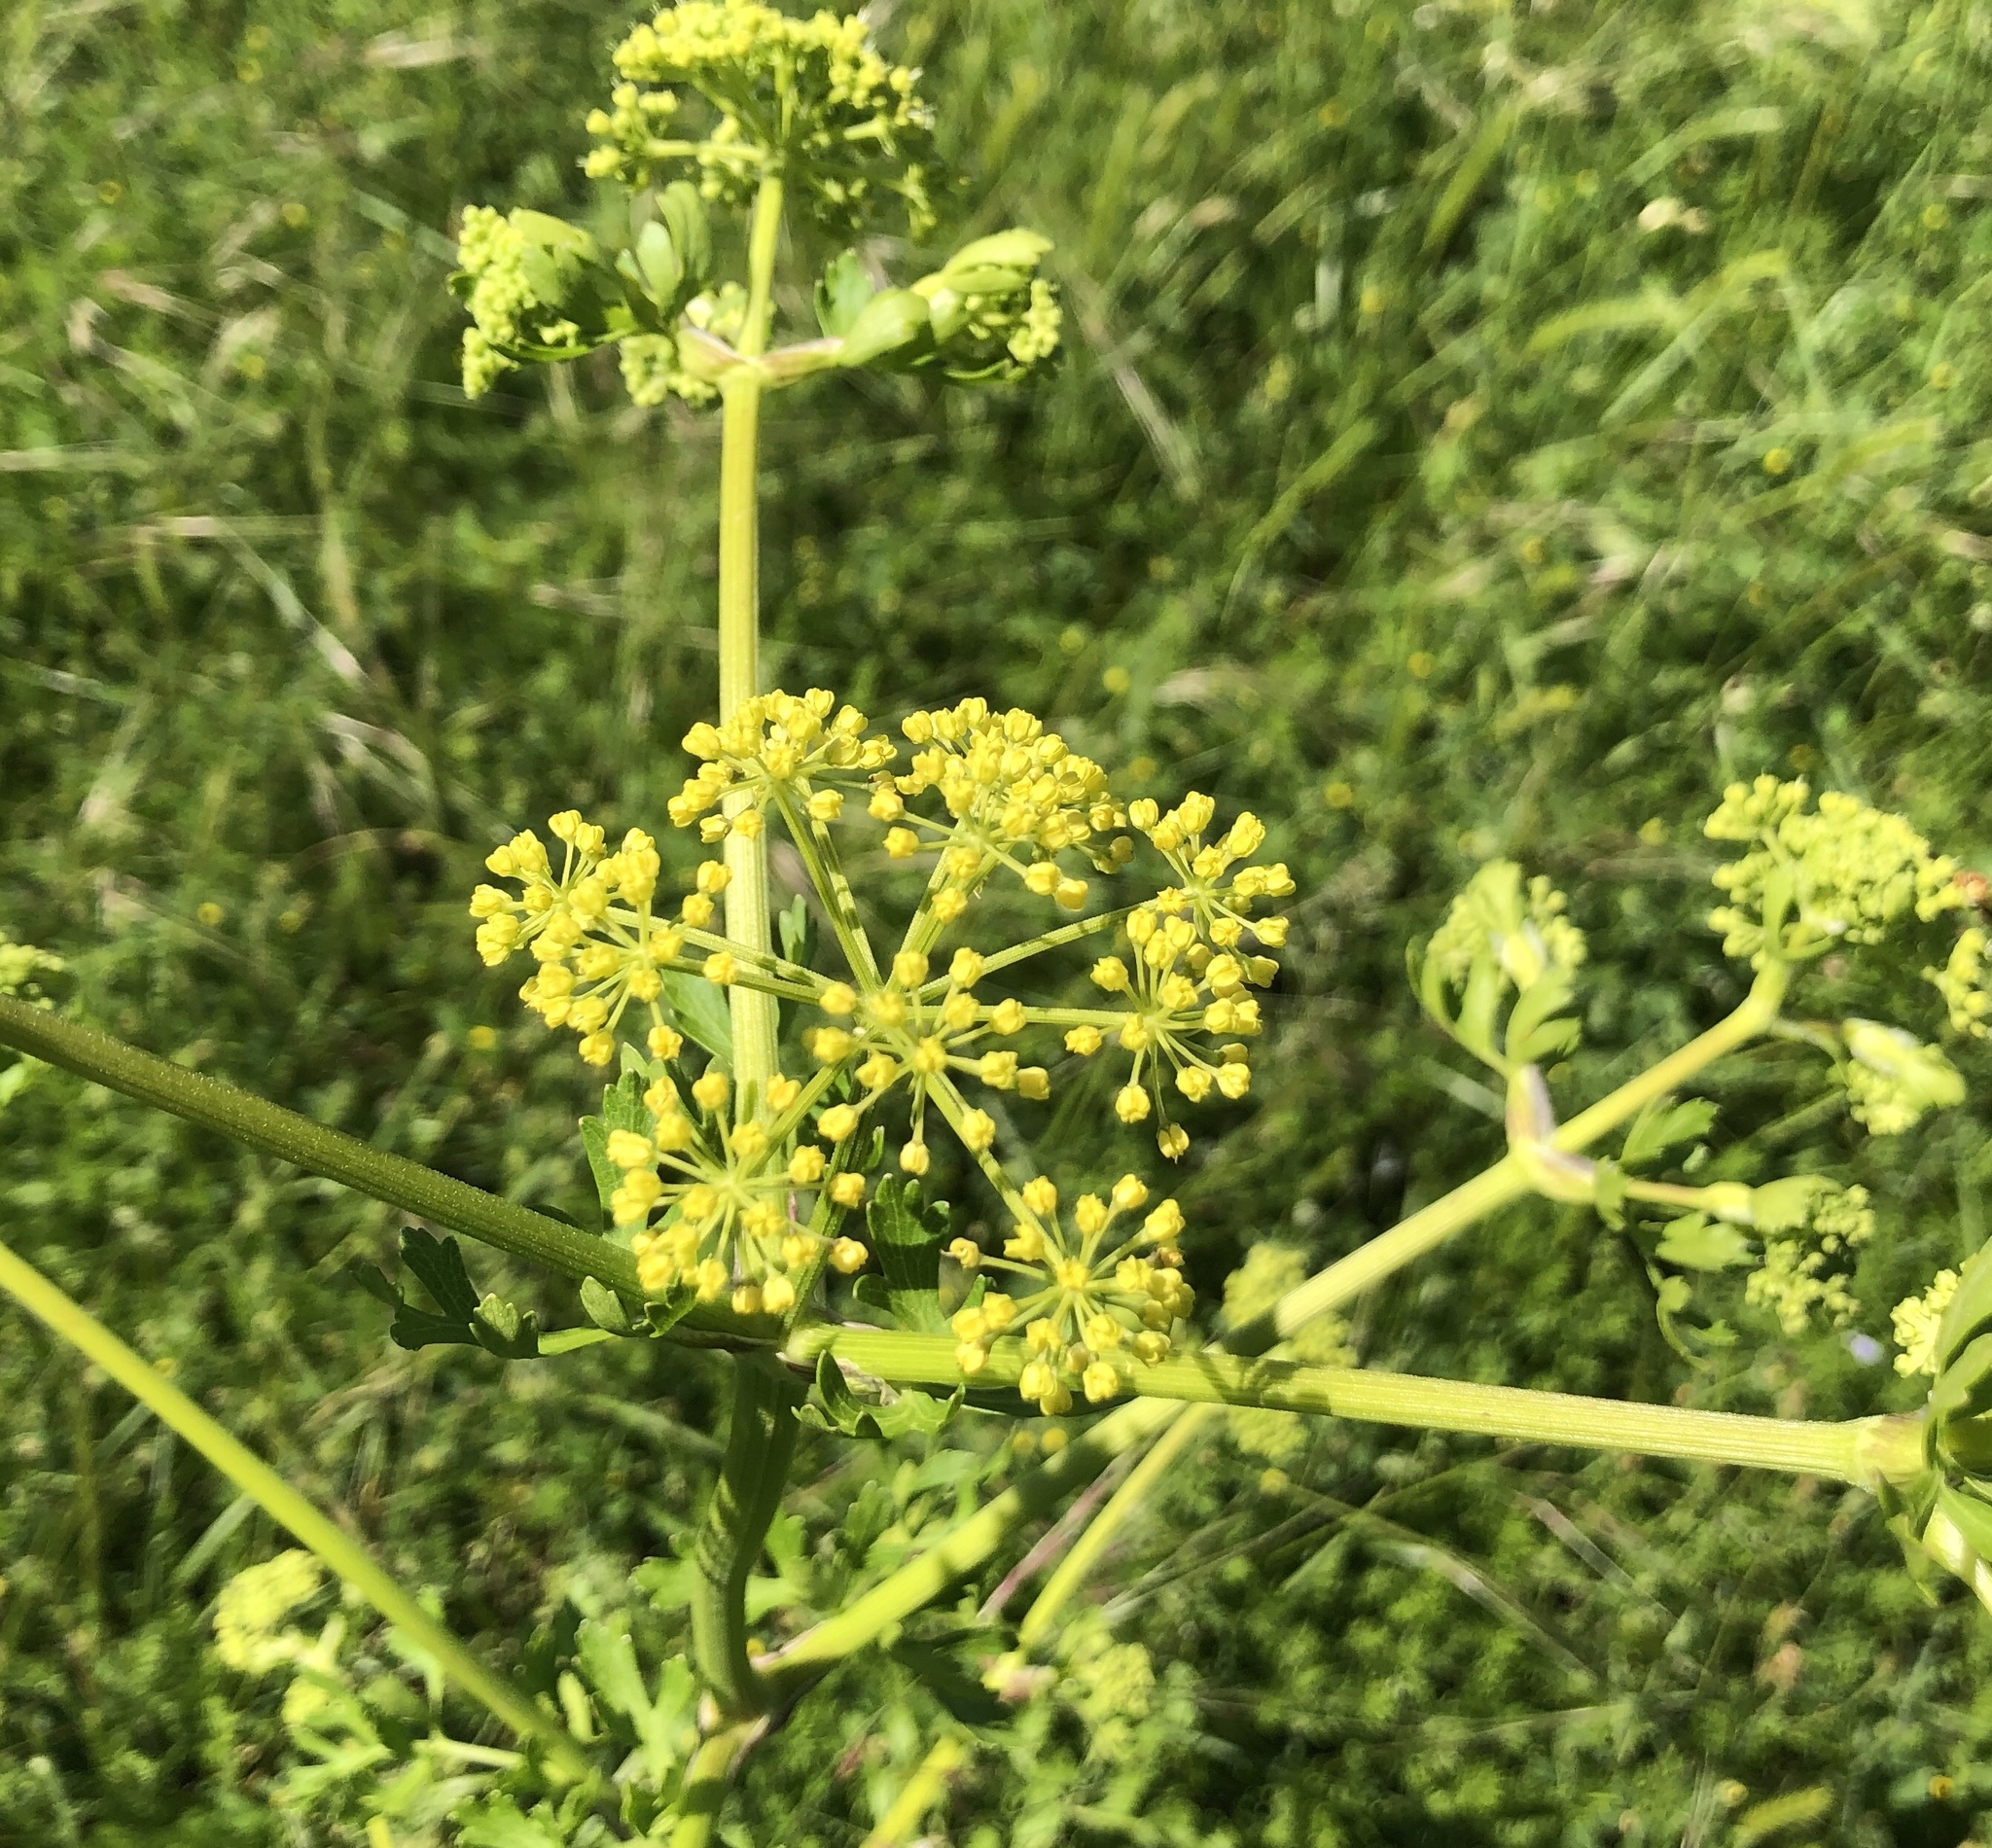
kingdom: Plantae
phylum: Tracheophyta
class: Magnoliopsida
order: Apiales
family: Apiaceae
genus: Polytaenia
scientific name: Polytaenia texana
